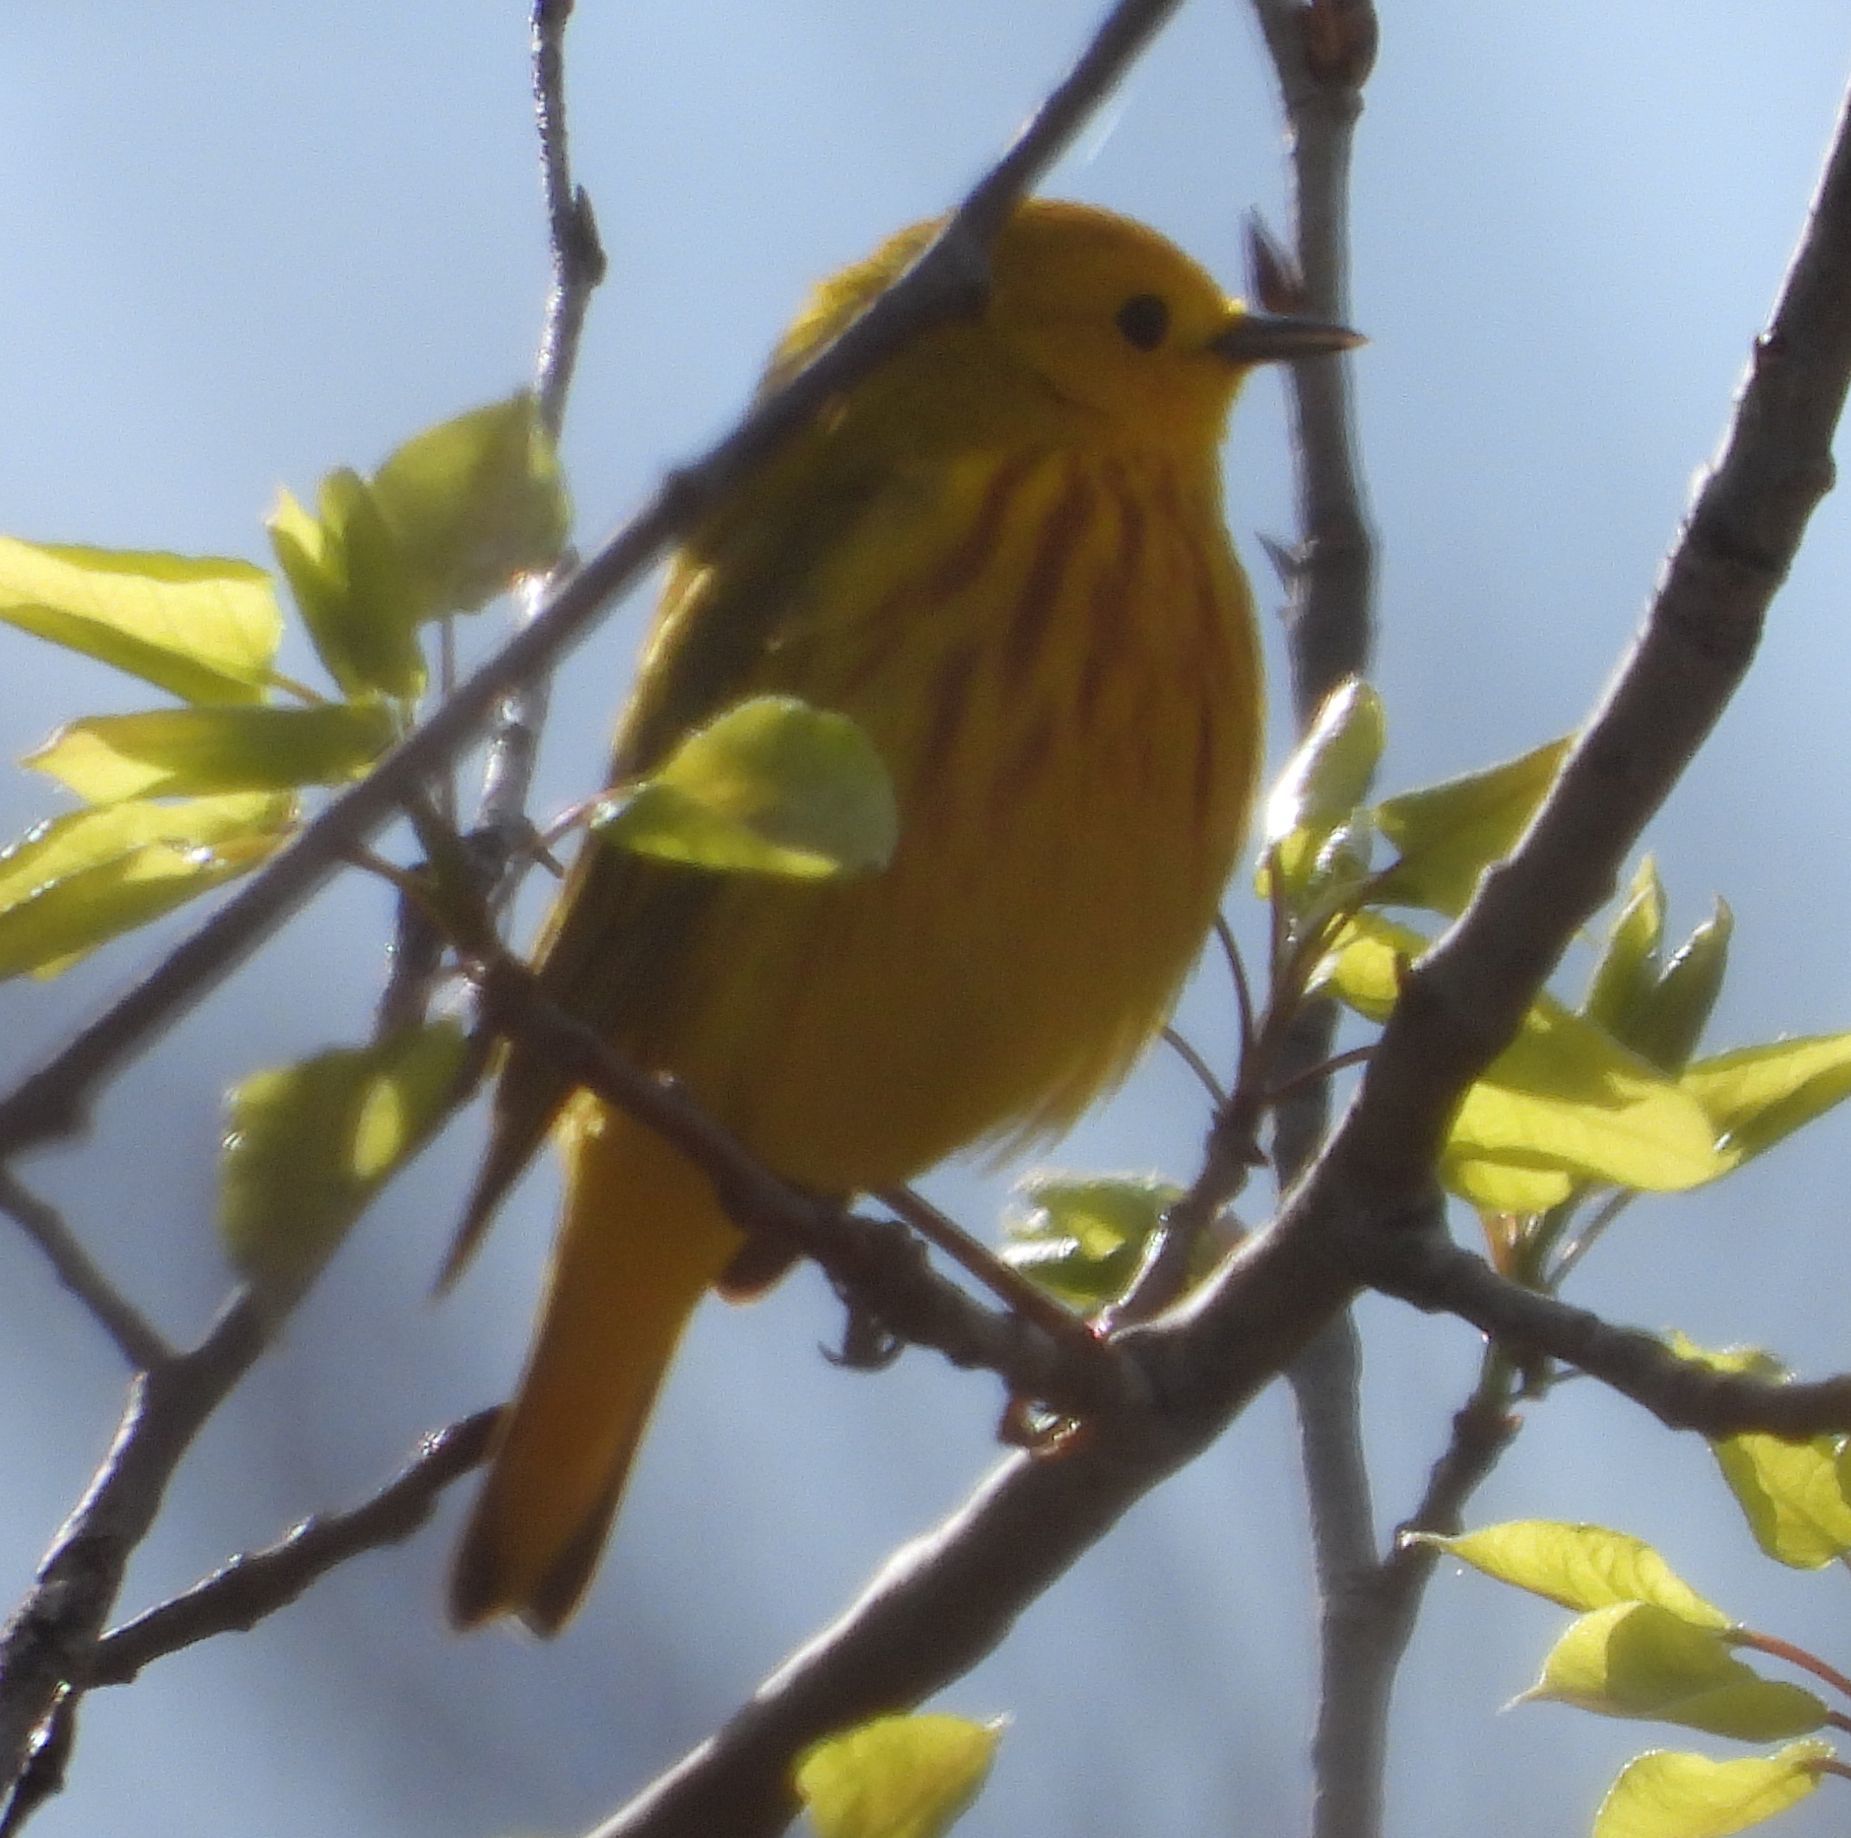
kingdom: Animalia
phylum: Chordata
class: Aves
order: Passeriformes
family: Parulidae
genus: Setophaga
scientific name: Setophaga petechia
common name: Yellow warbler
